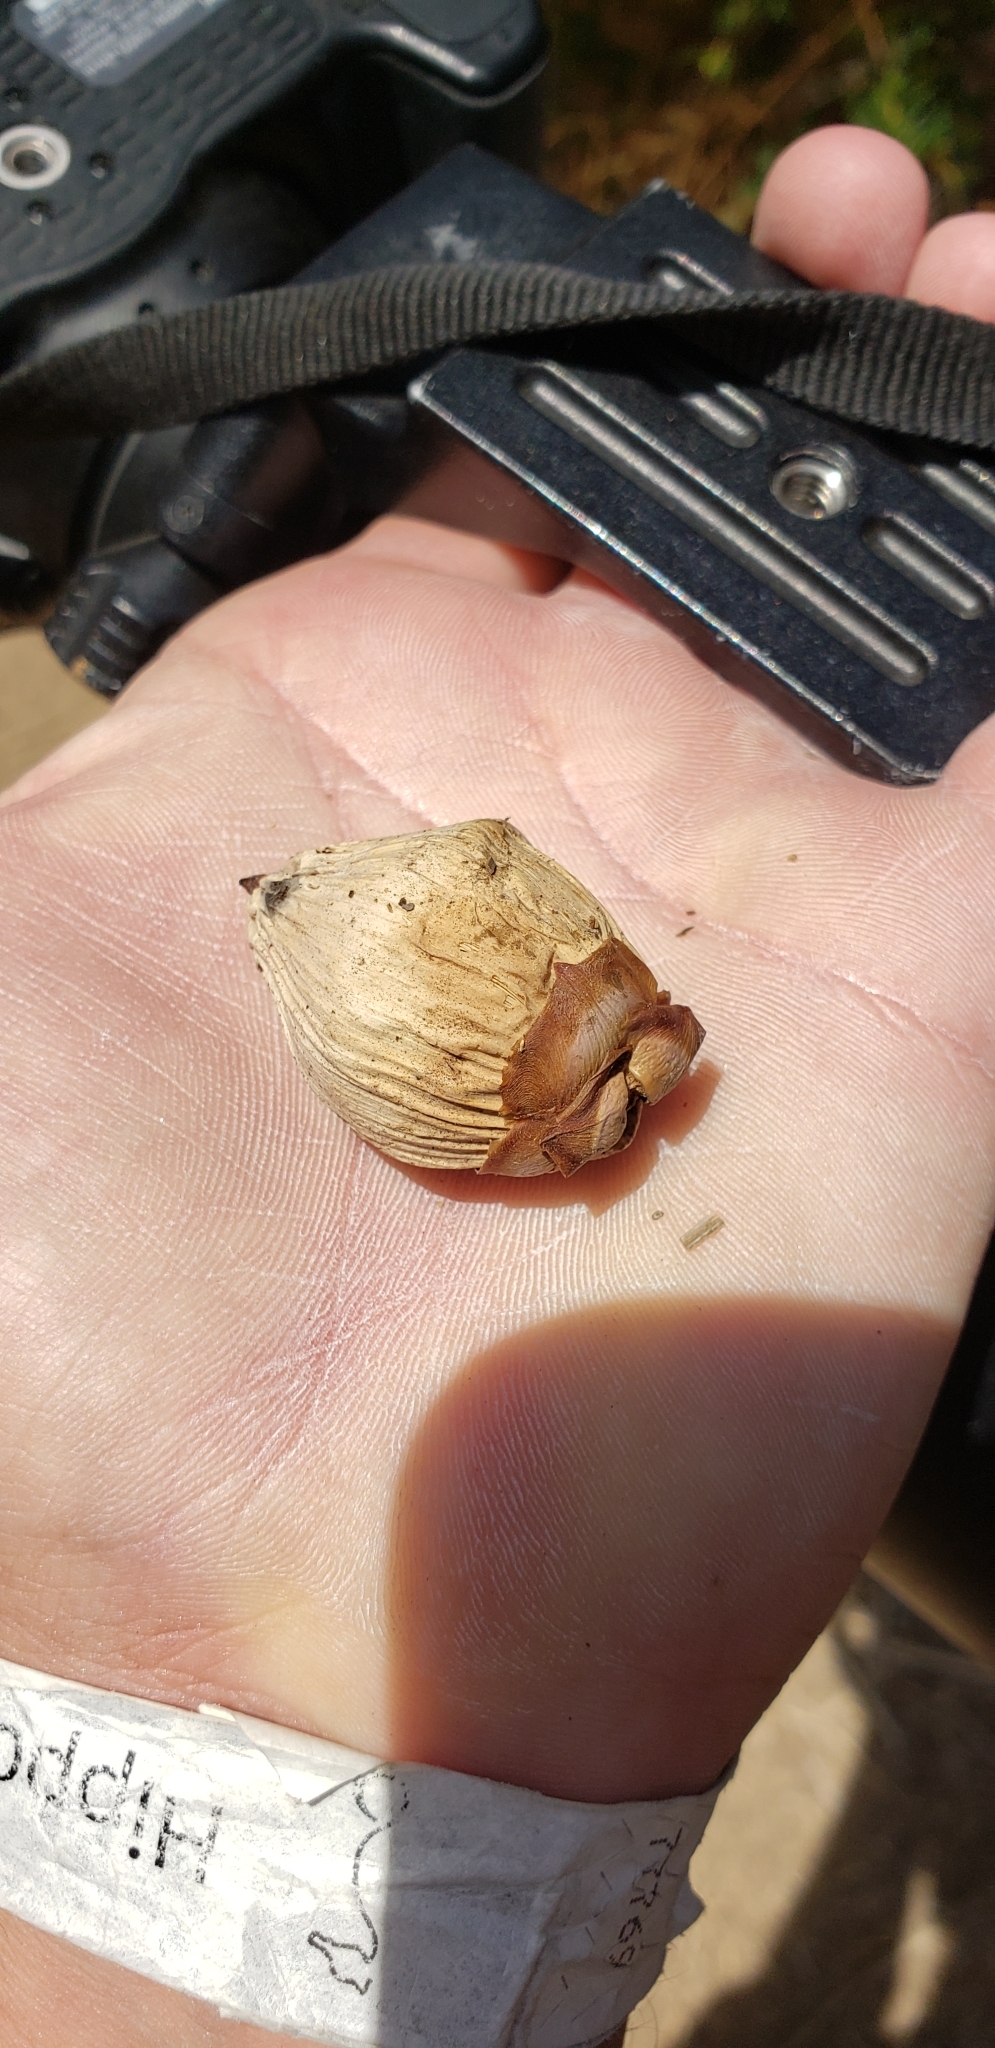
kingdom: Plantae
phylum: Tracheophyta
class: Liliopsida
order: Arecales
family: Arecaceae
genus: Jubaea
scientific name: Jubaea chilensis
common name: Coquito palm
